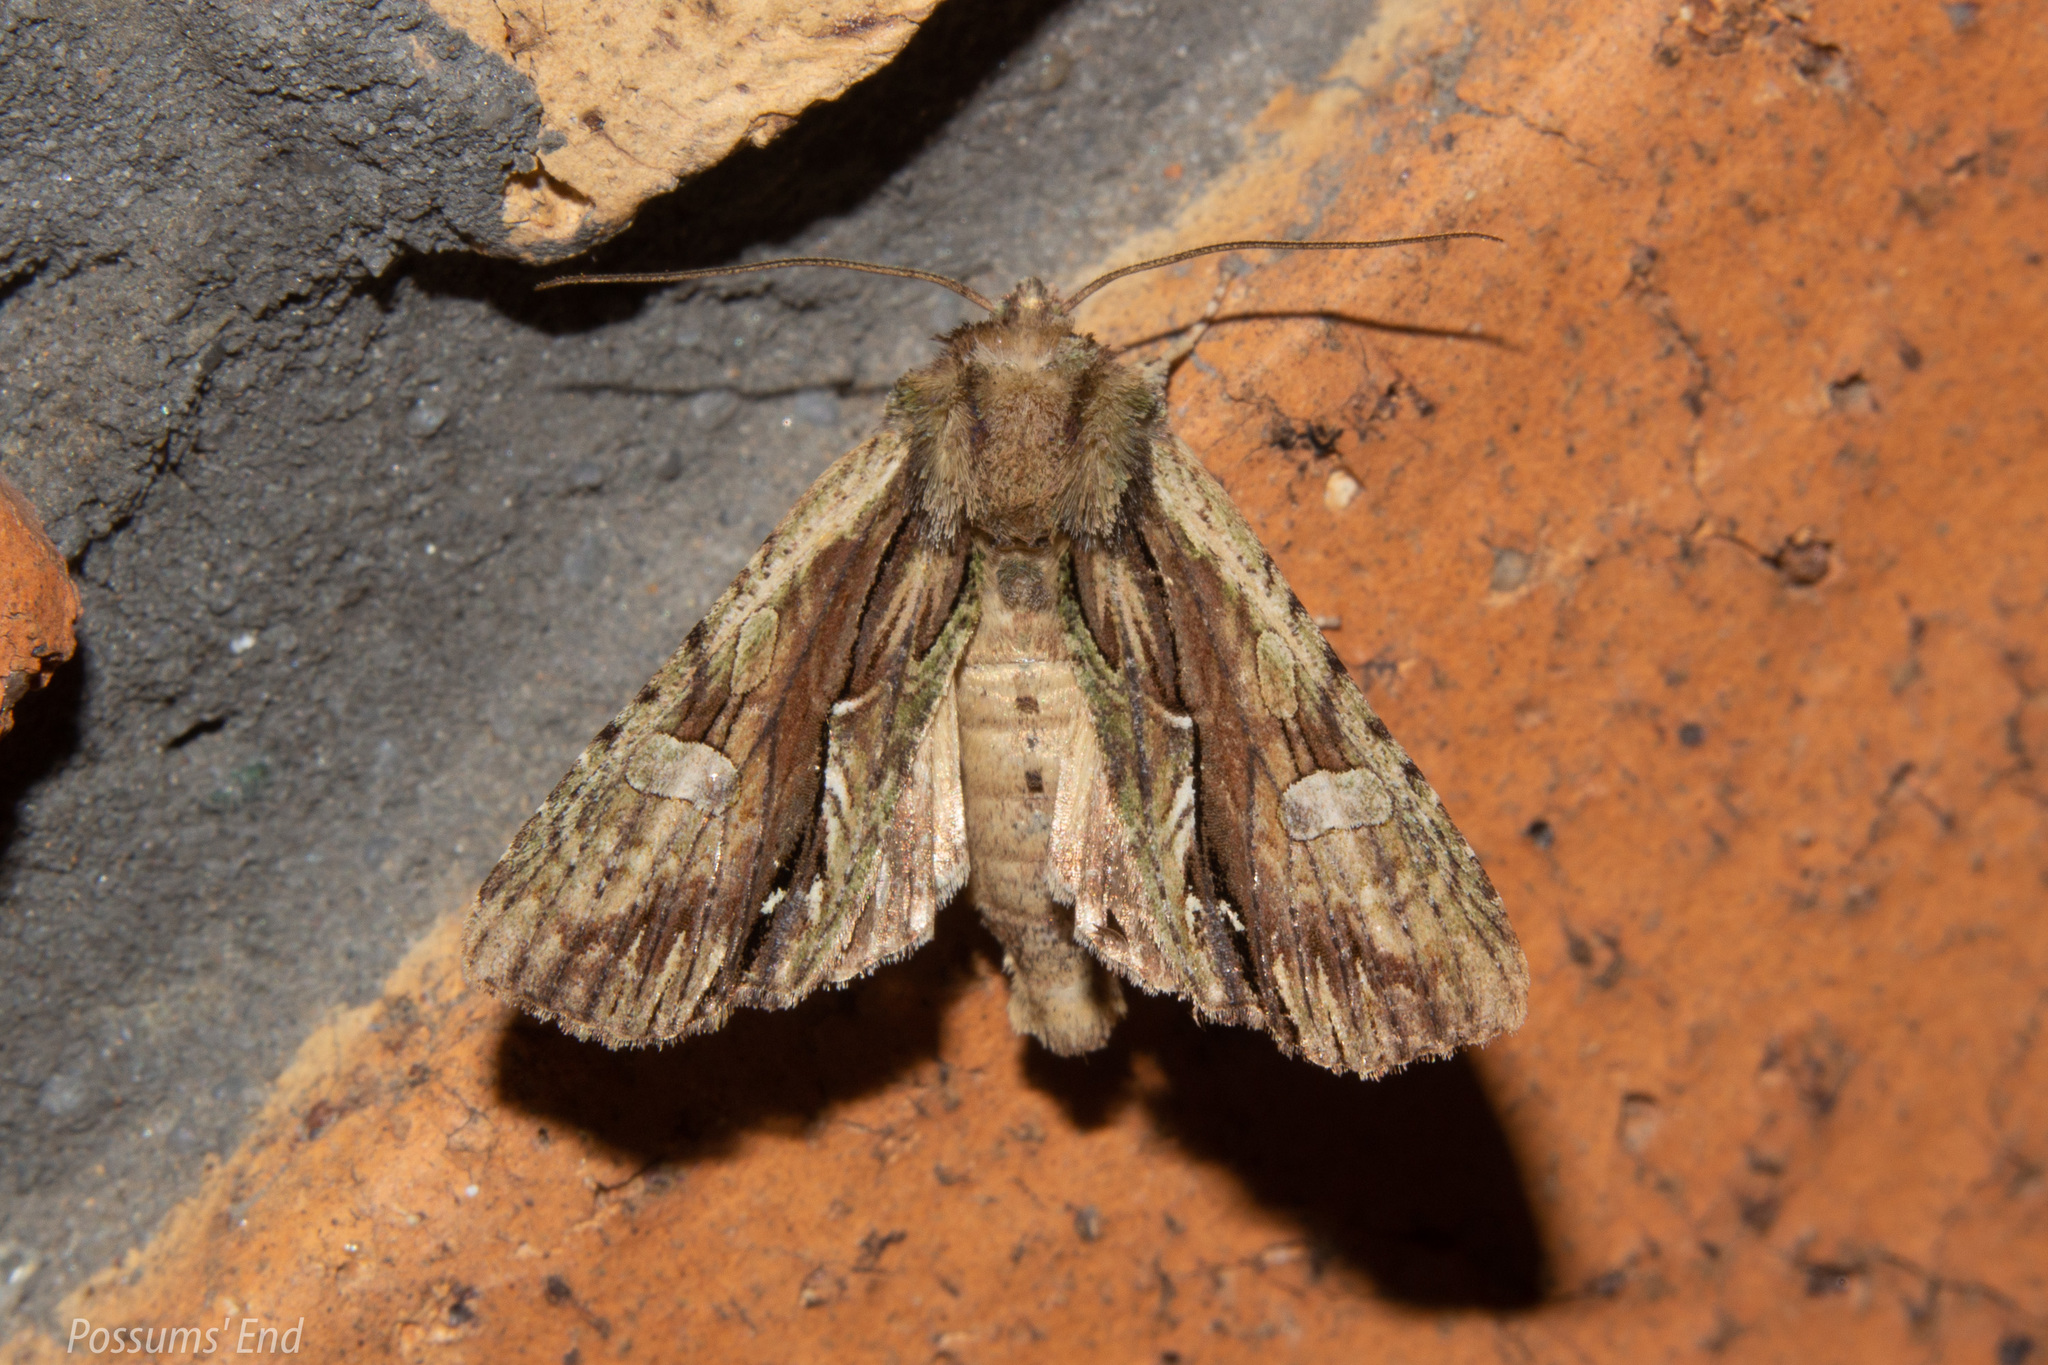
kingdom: Animalia
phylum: Arthropoda
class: Insecta
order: Lepidoptera
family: Noctuidae
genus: Meterana
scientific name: Meterana decorata
